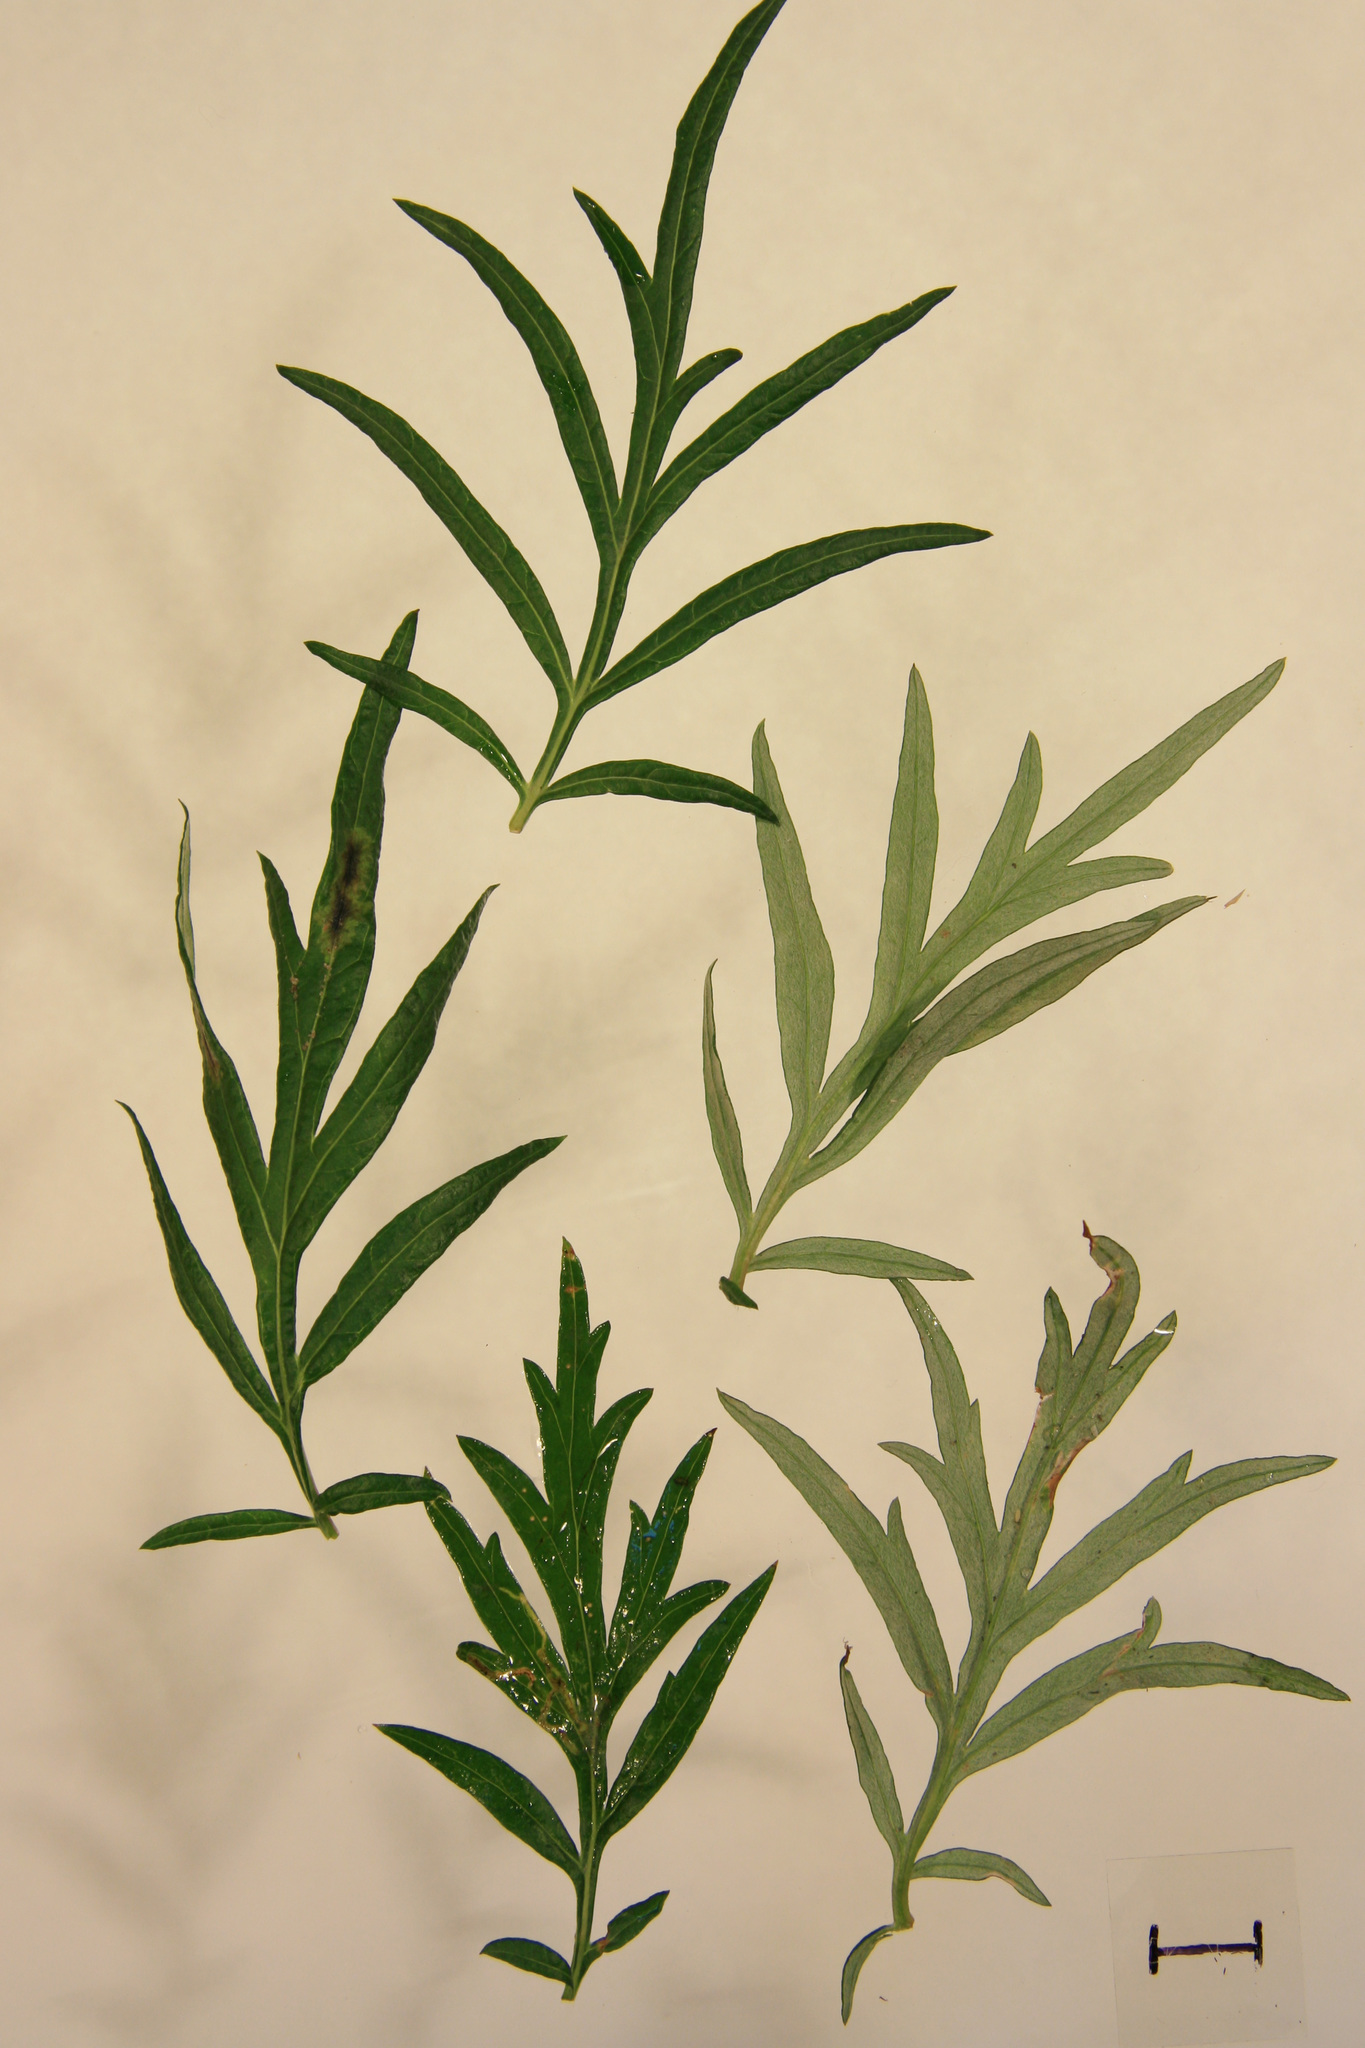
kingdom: Plantae
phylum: Tracheophyta
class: Magnoliopsida
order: Asterales
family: Asteraceae
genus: Artemisia
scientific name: Artemisia vulgaris
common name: Mugwort
